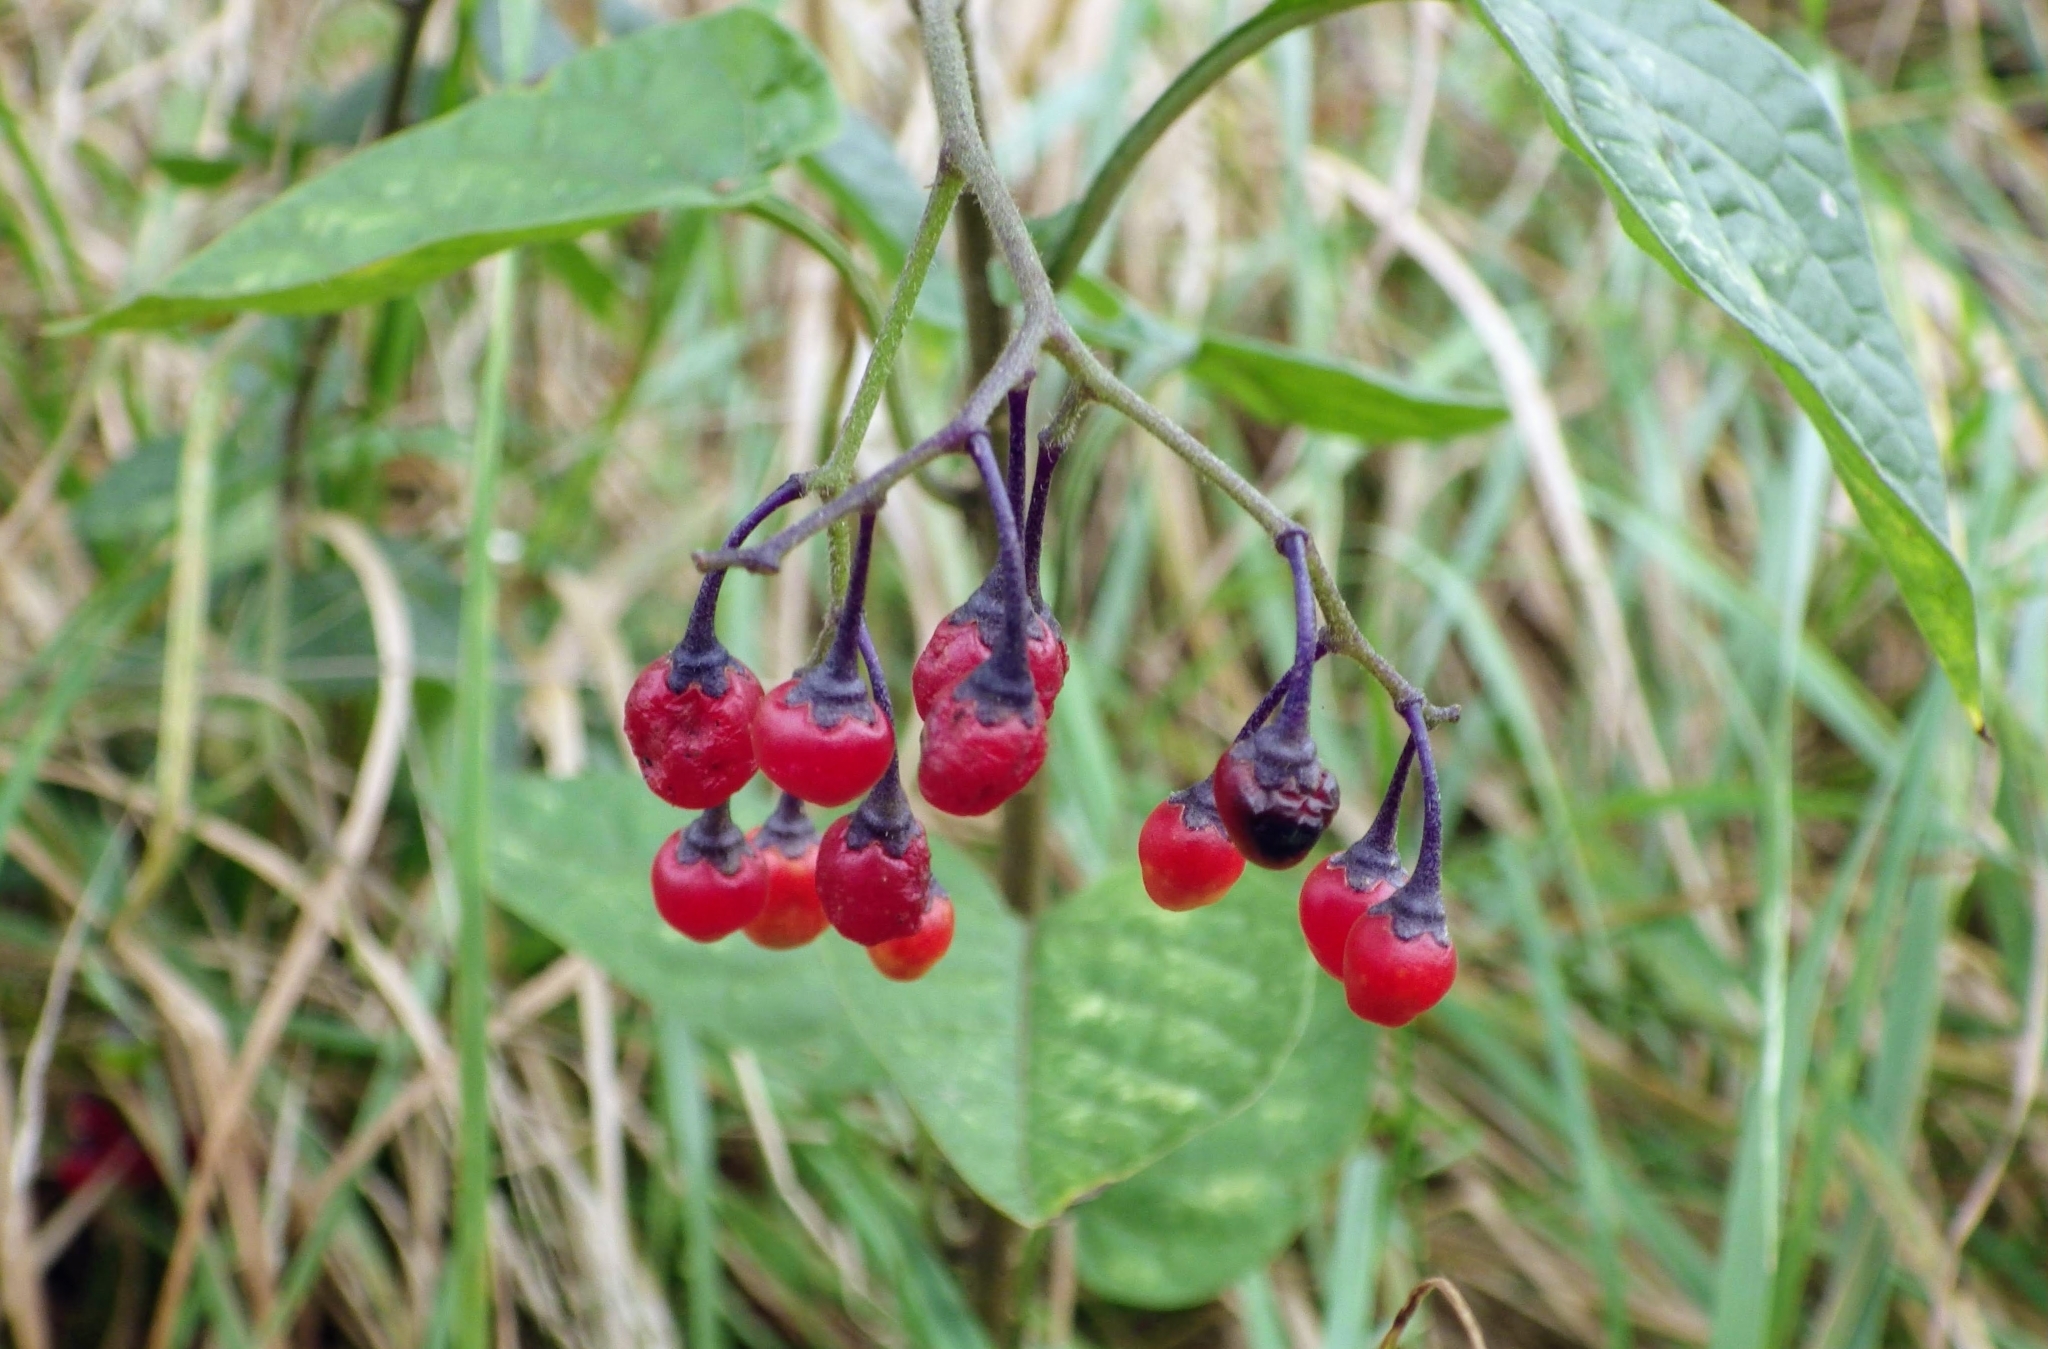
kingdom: Plantae
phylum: Tracheophyta
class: Magnoliopsida
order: Solanales
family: Solanaceae
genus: Solanum
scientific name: Solanum dulcamara
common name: Climbing nightshade
